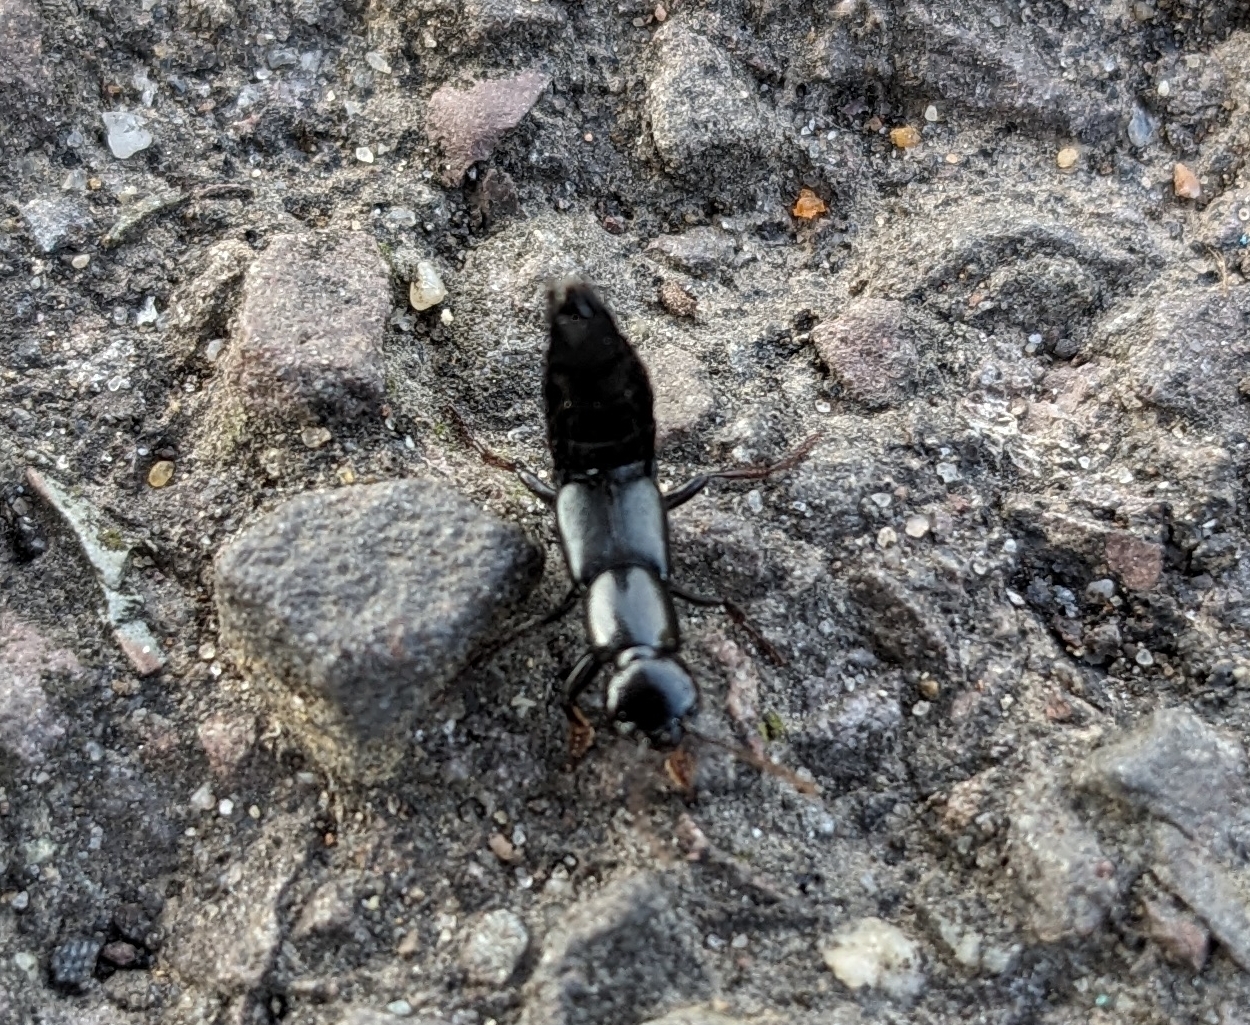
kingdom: Animalia
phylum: Arthropoda
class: Insecta
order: Coleoptera
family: Staphylinidae
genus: Ocypus
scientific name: Ocypus olens
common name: Devil's coach-horse
